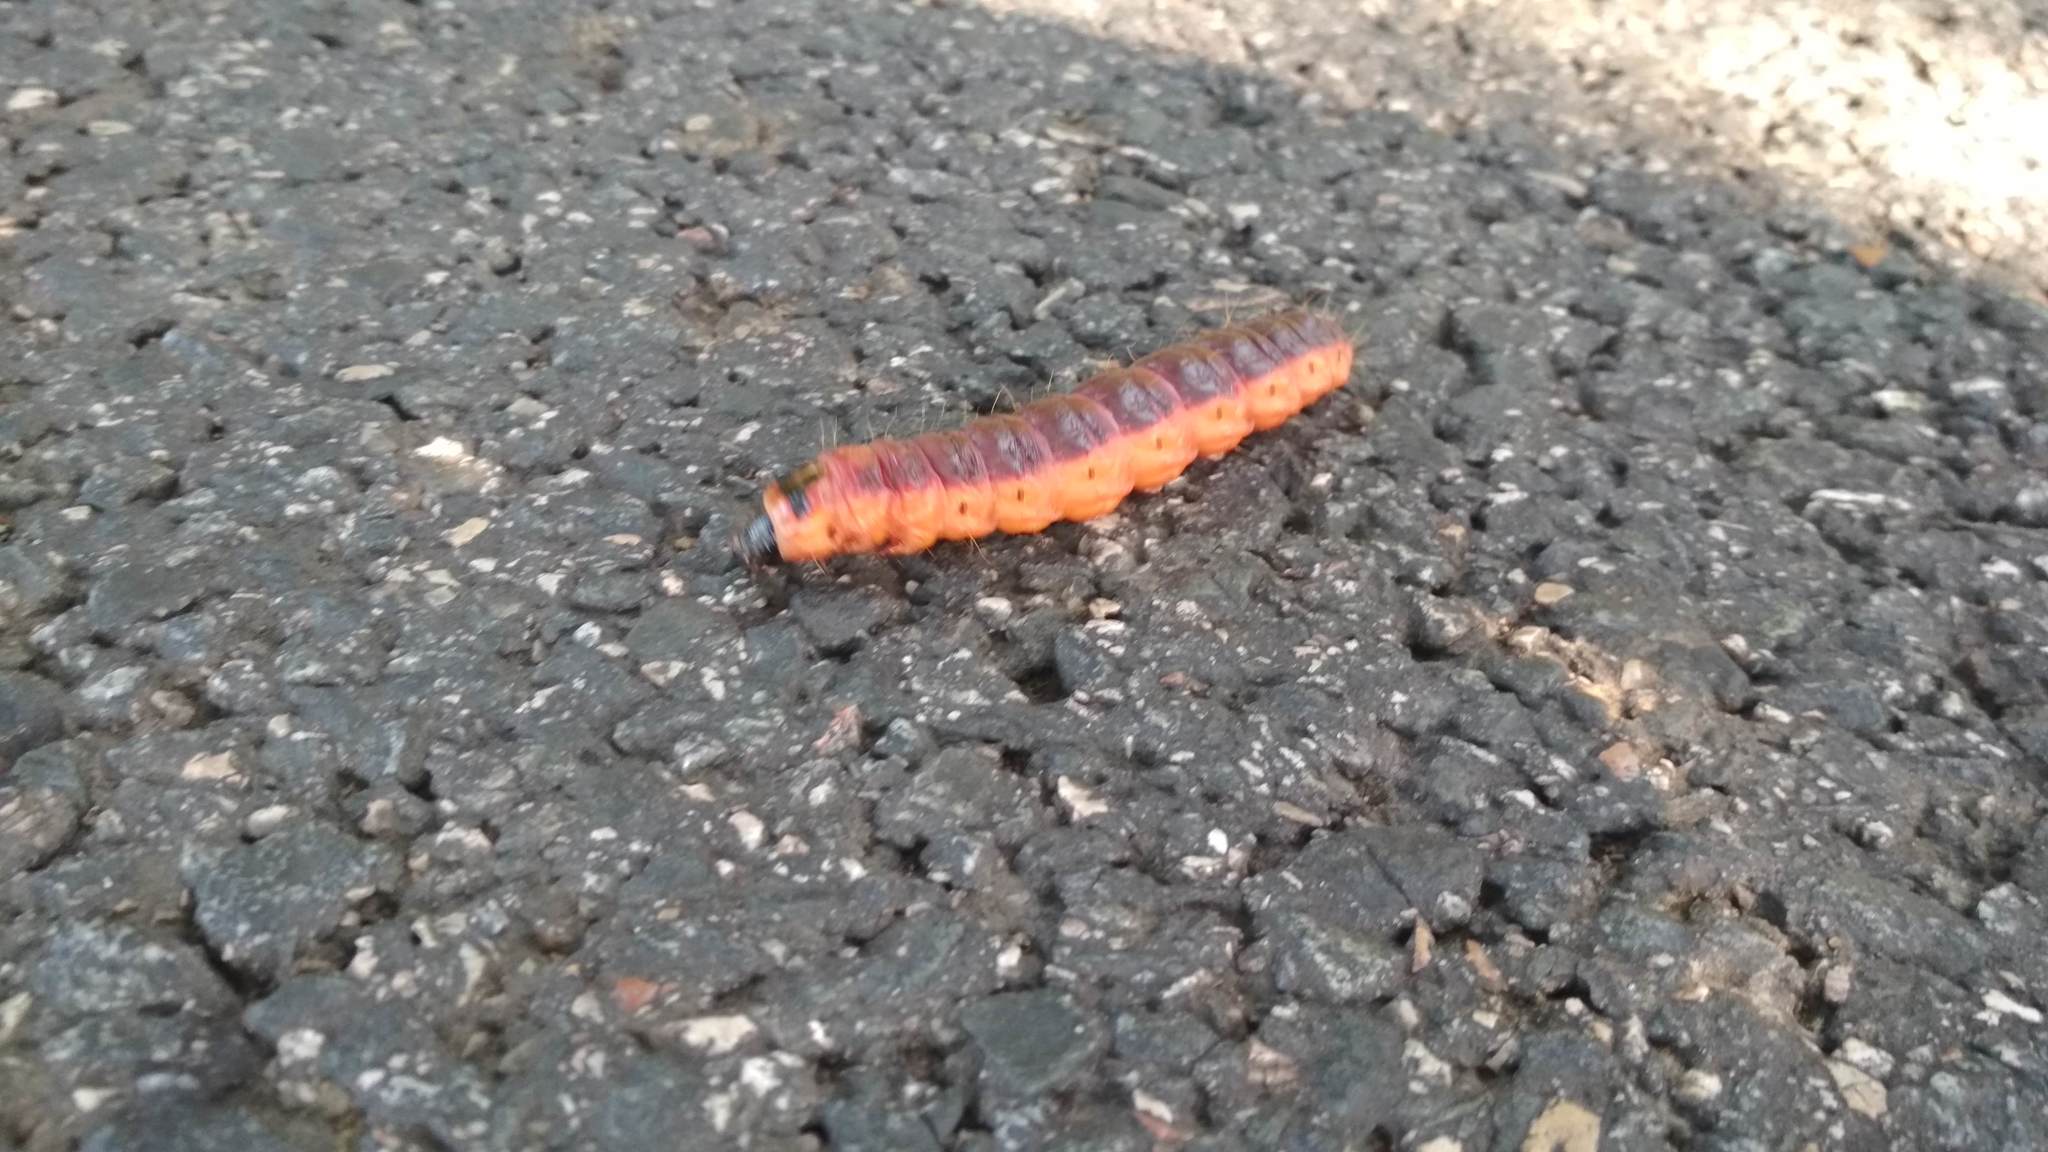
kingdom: Animalia
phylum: Arthropoda
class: Insecta
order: Lepidoptera
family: Cossidae
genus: Cossus
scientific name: Cossus cossus
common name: Goat moth
